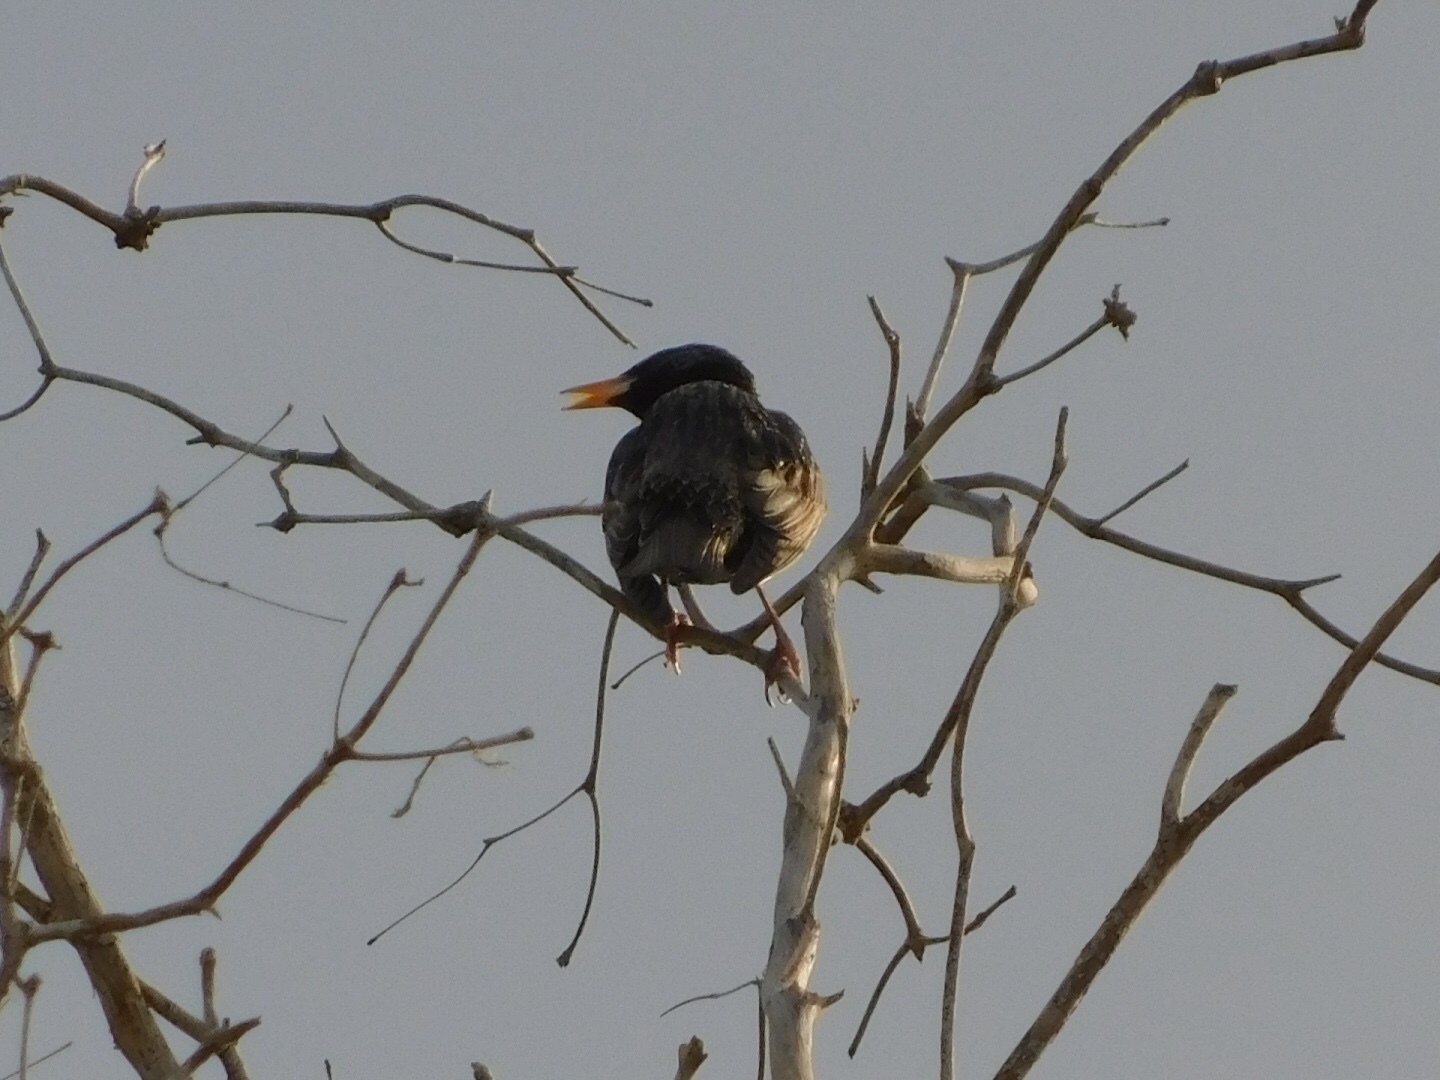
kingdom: Animalia
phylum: Chordata
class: Aves
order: Passeriformes
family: Sturnidae
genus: Sturnus
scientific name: Sturnus vulgaris
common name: Common starling
